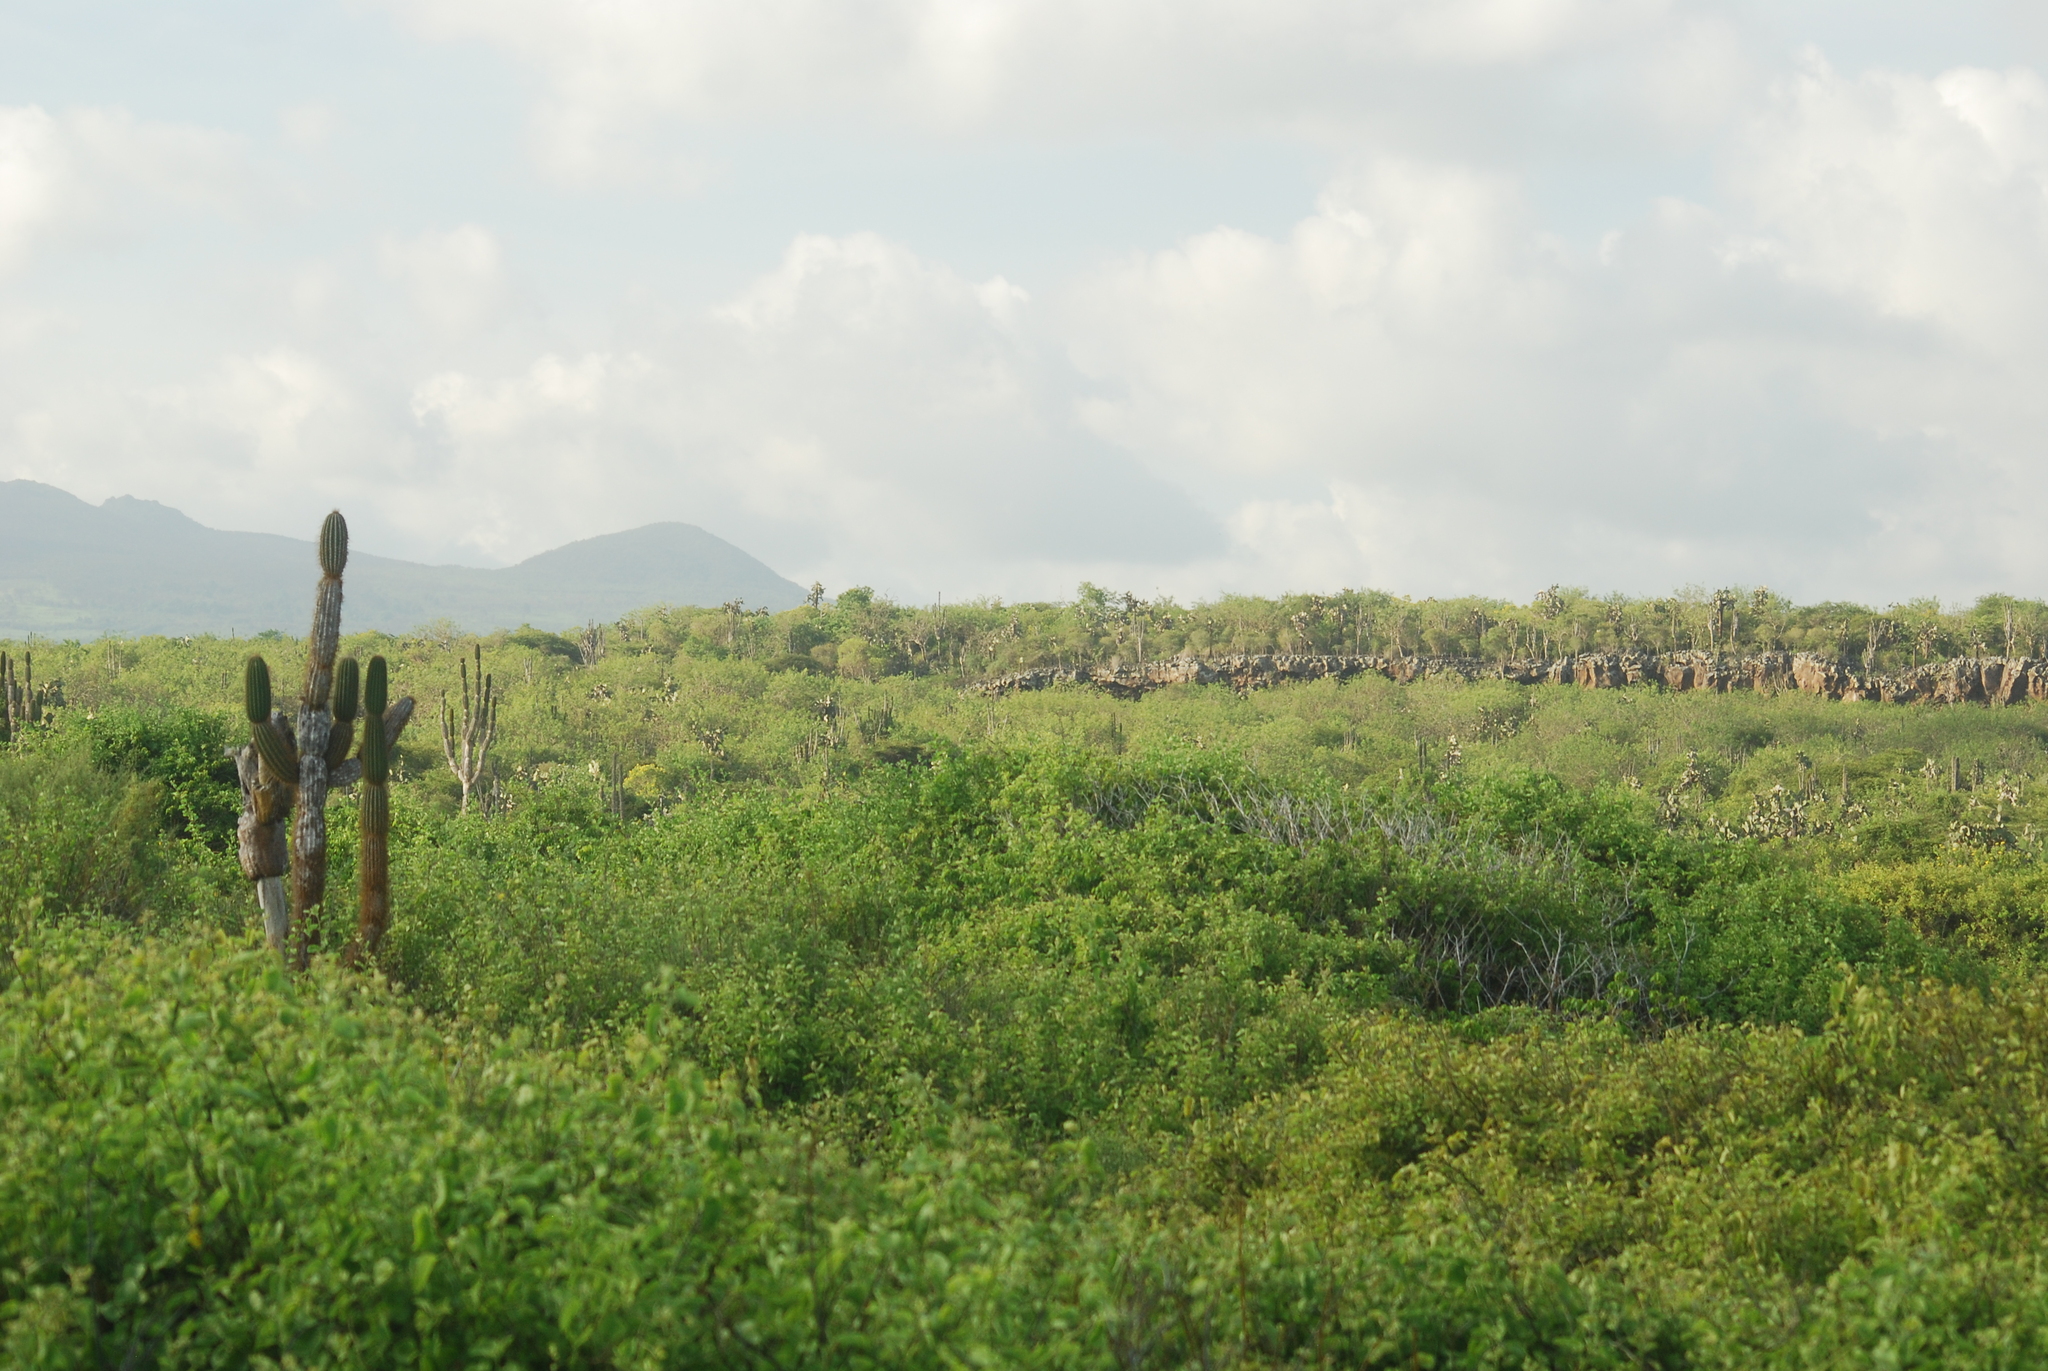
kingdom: Plantae
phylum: Tracheophyta
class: Magnoliopsida
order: Caryophyllales
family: Cactaceae
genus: Jasminocereus
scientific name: Jasminocereus thouarsii
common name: Candelabra cactus
